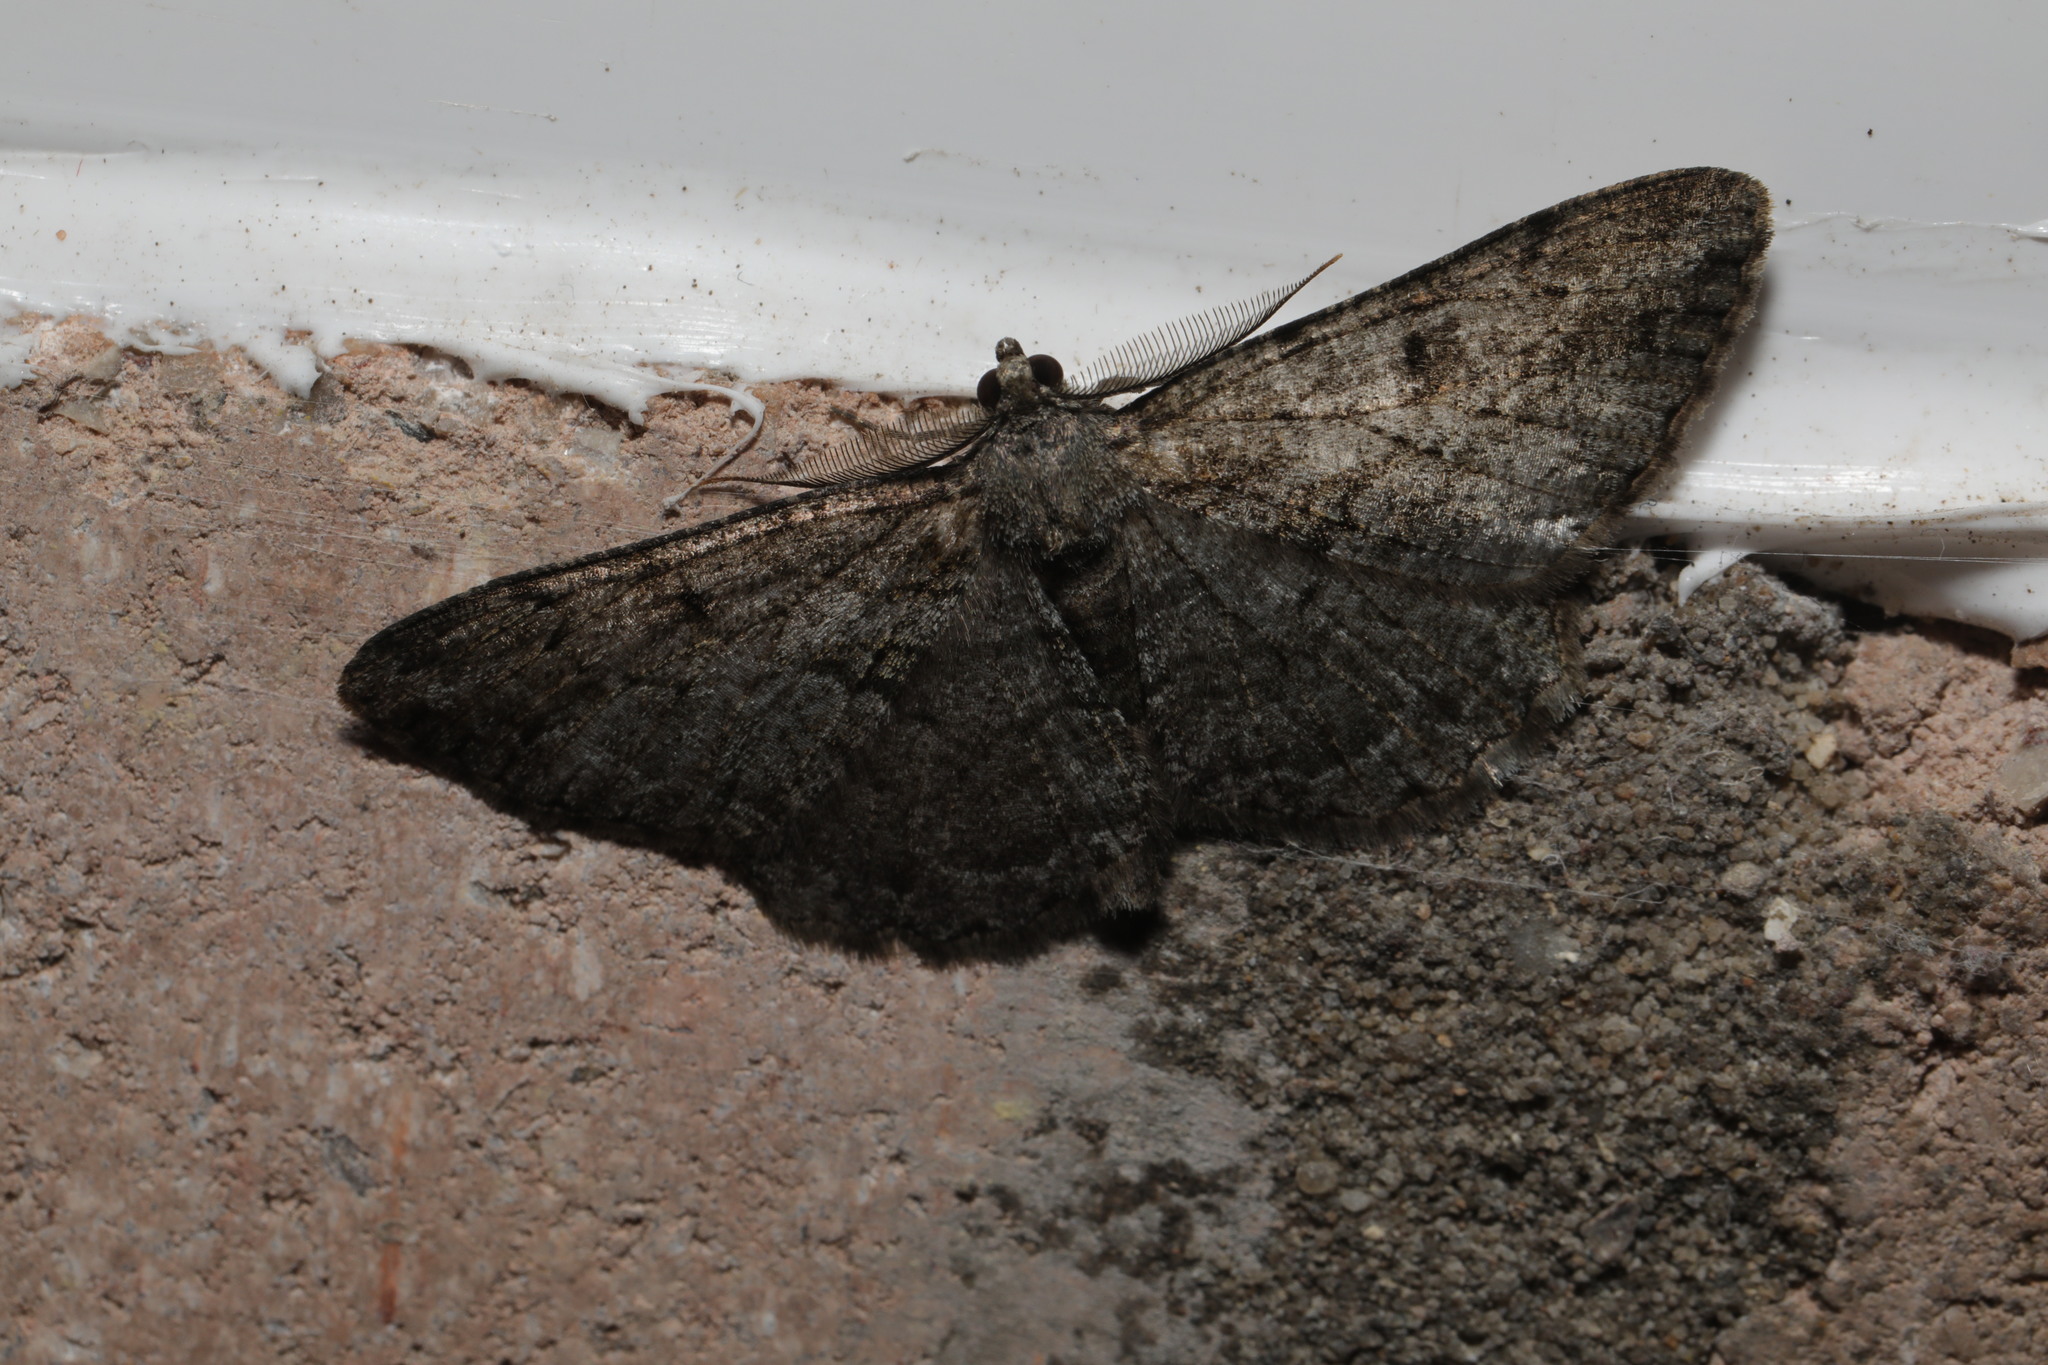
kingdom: Animalia
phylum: Arthropoda
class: Insecta
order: Lepidoptera
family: Geometridae
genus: Peribatodes
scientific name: Peribatodes rhomboidaria
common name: Willow beauty
